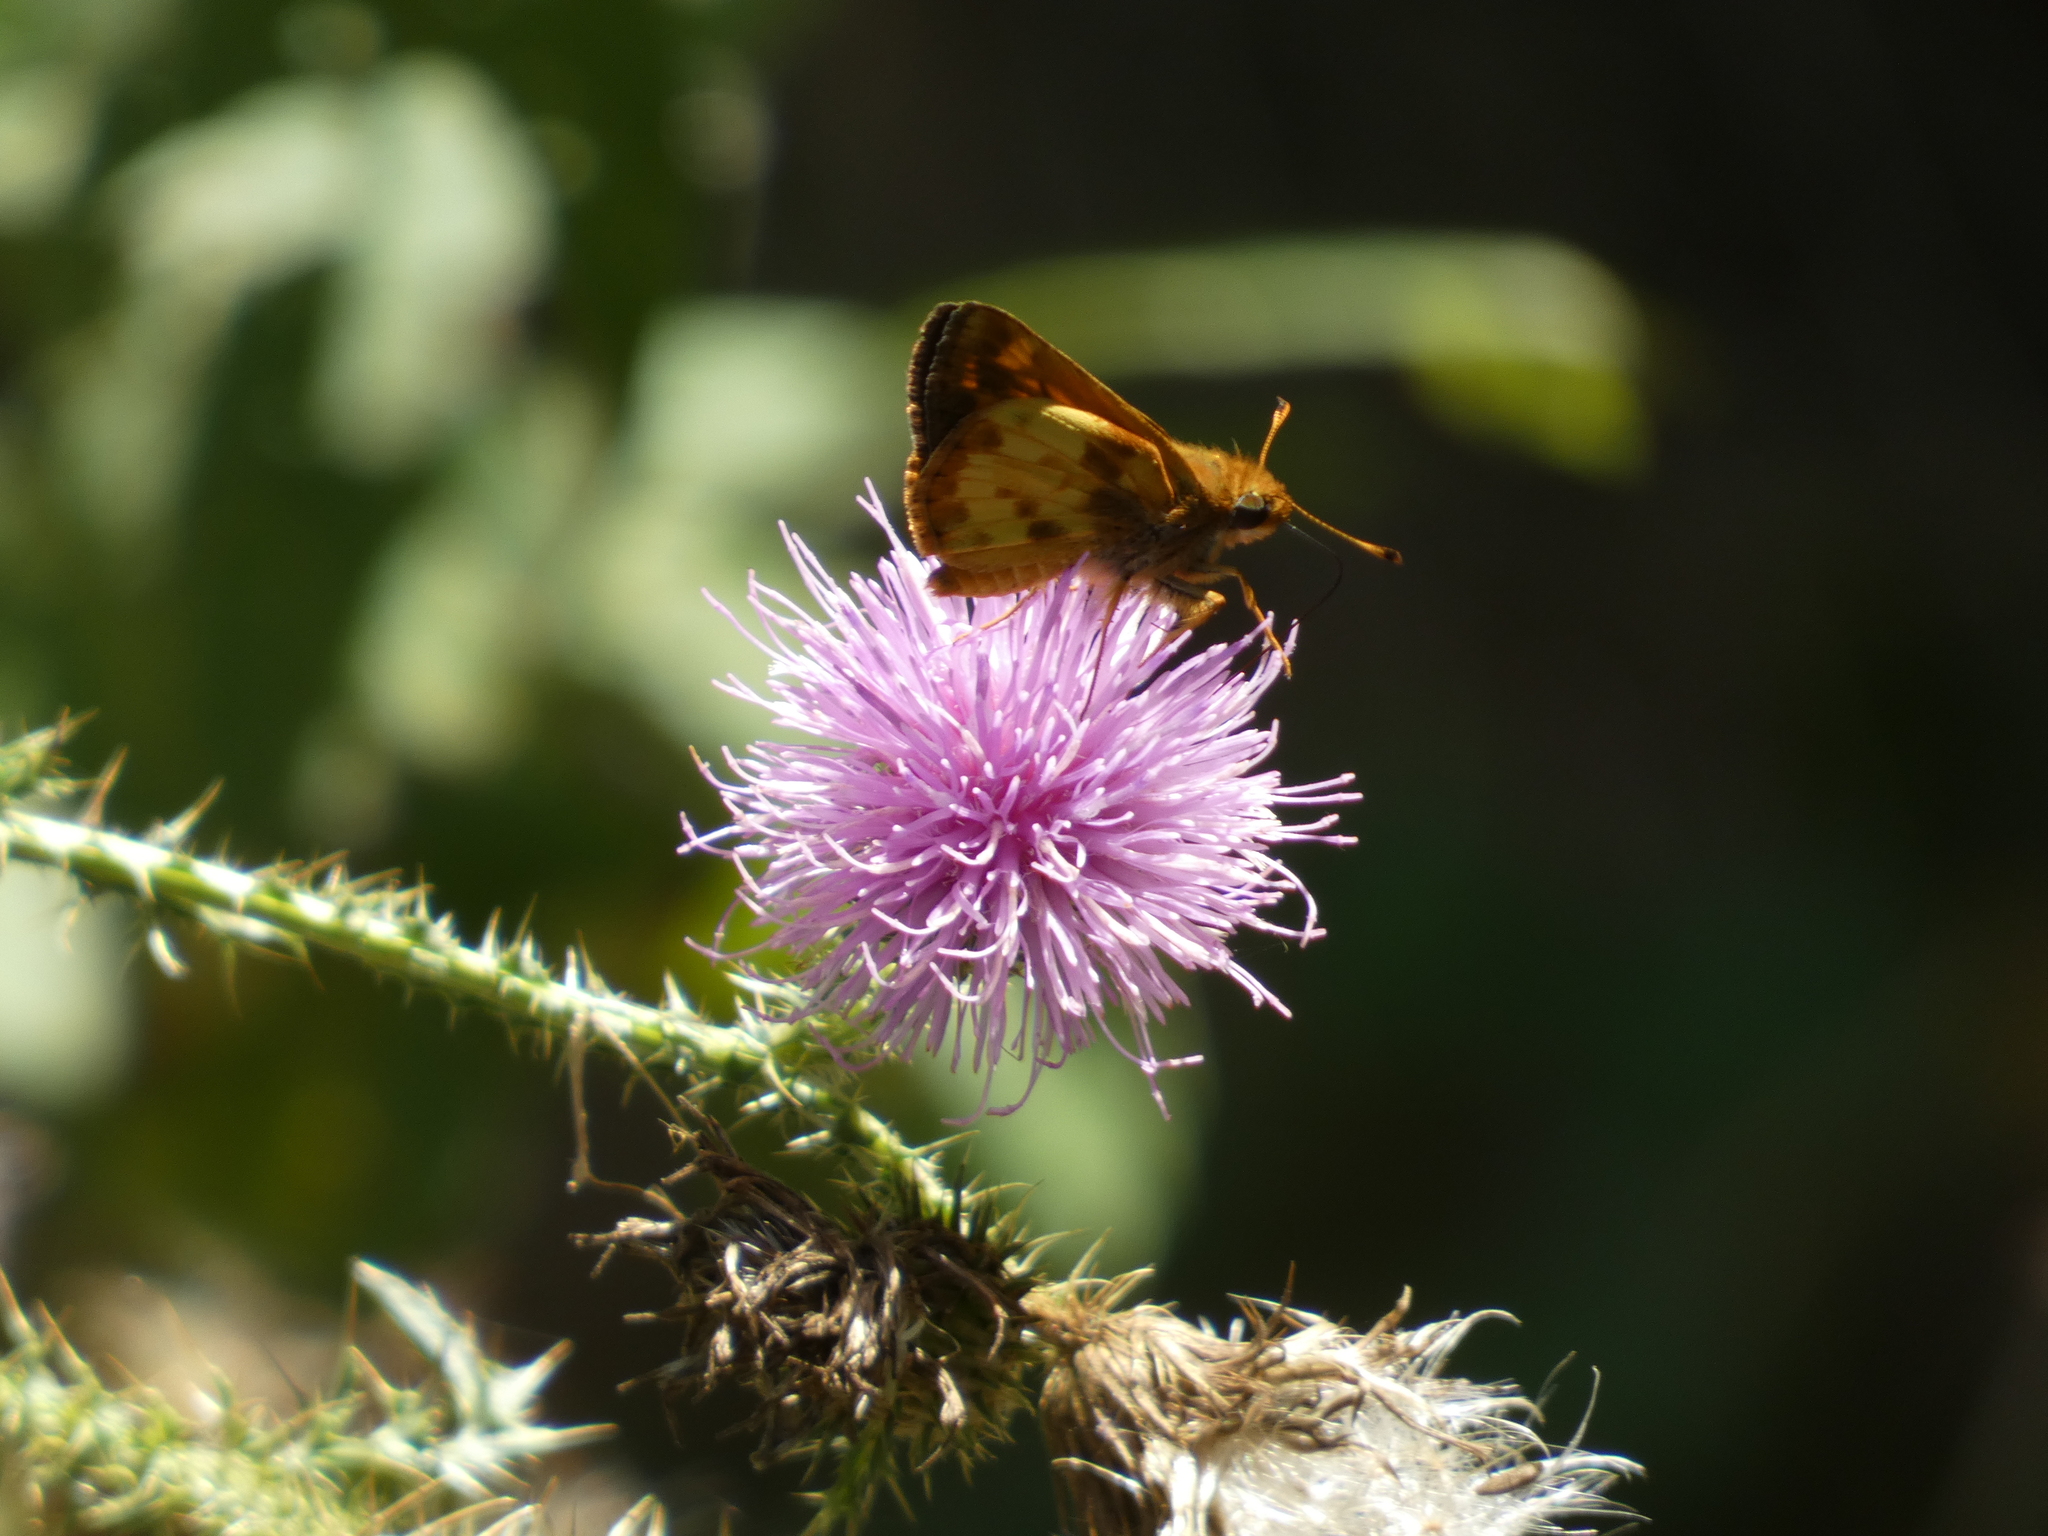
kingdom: Animalia
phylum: Arthropoda
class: Insecta
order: Lepidoptera
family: Hesperiidae
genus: Lon
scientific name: Lon zabulon
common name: Zabulon skipper
